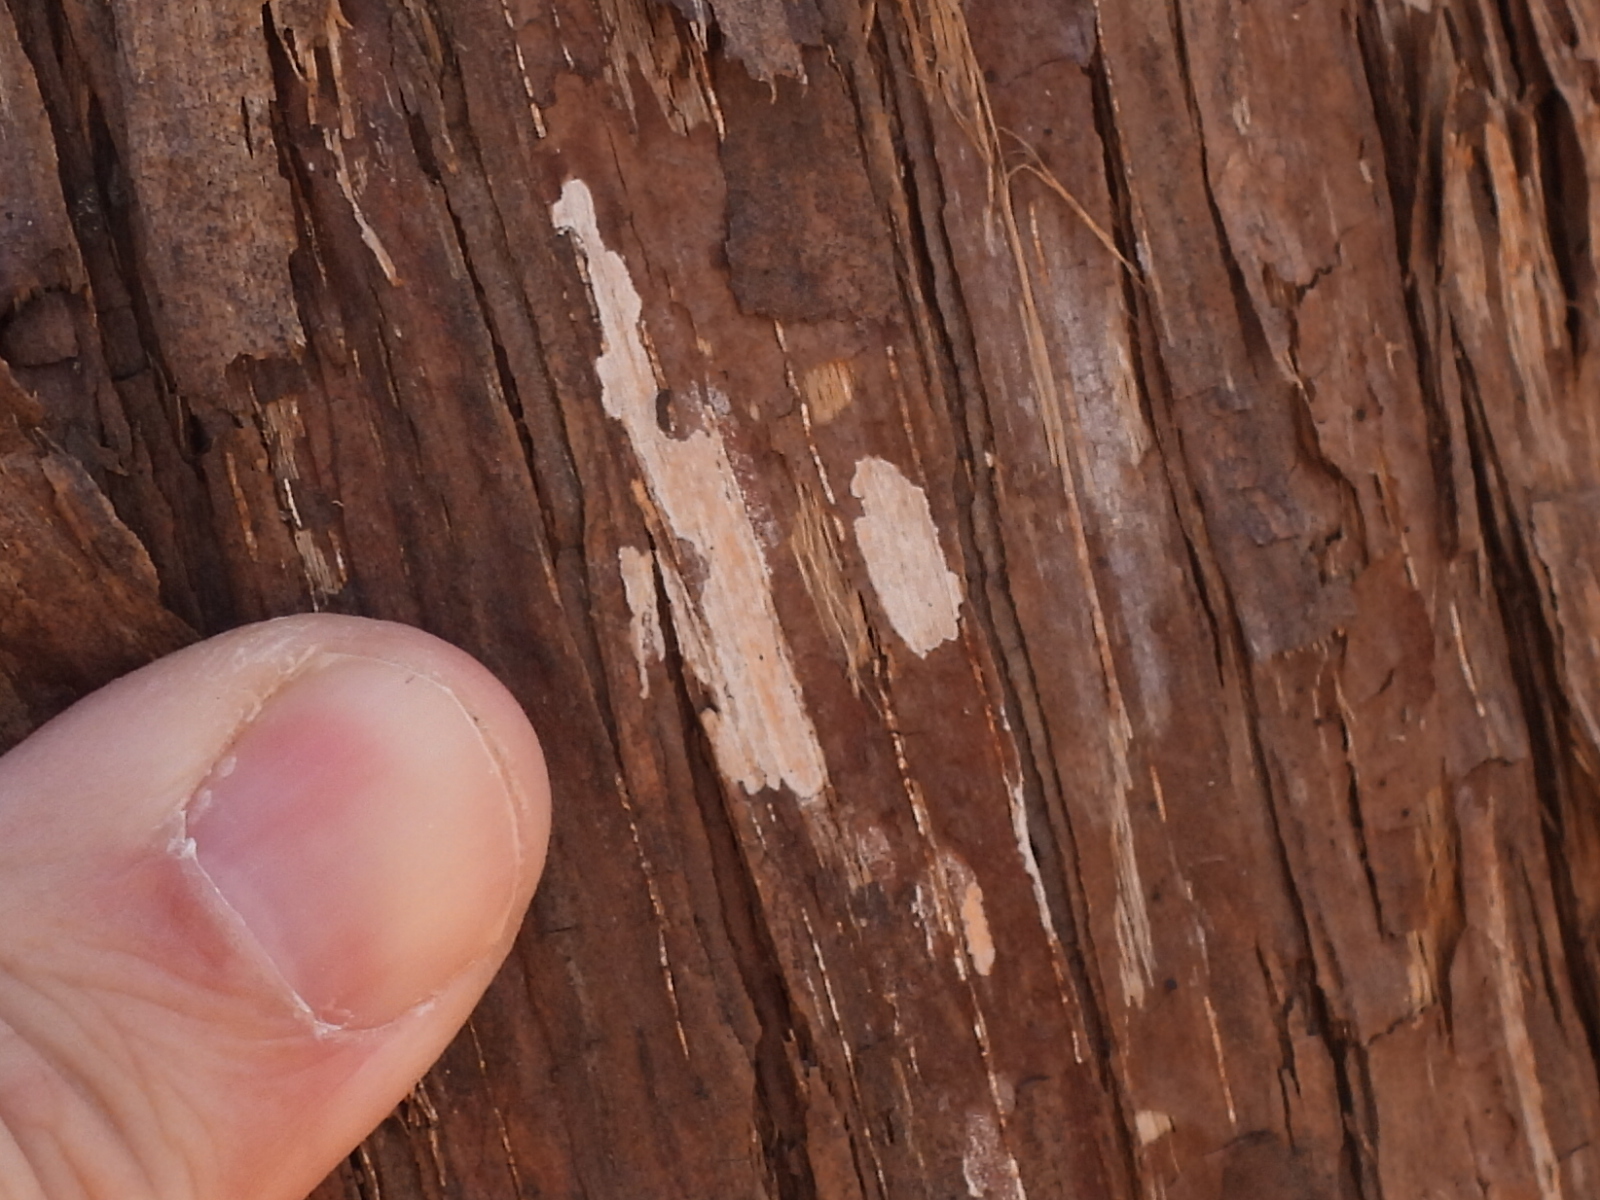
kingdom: Fungi
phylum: Basidiomycota
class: Agaricomycetes
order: Agaricales
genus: Dendrothele
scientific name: Dendrothele nivosa
